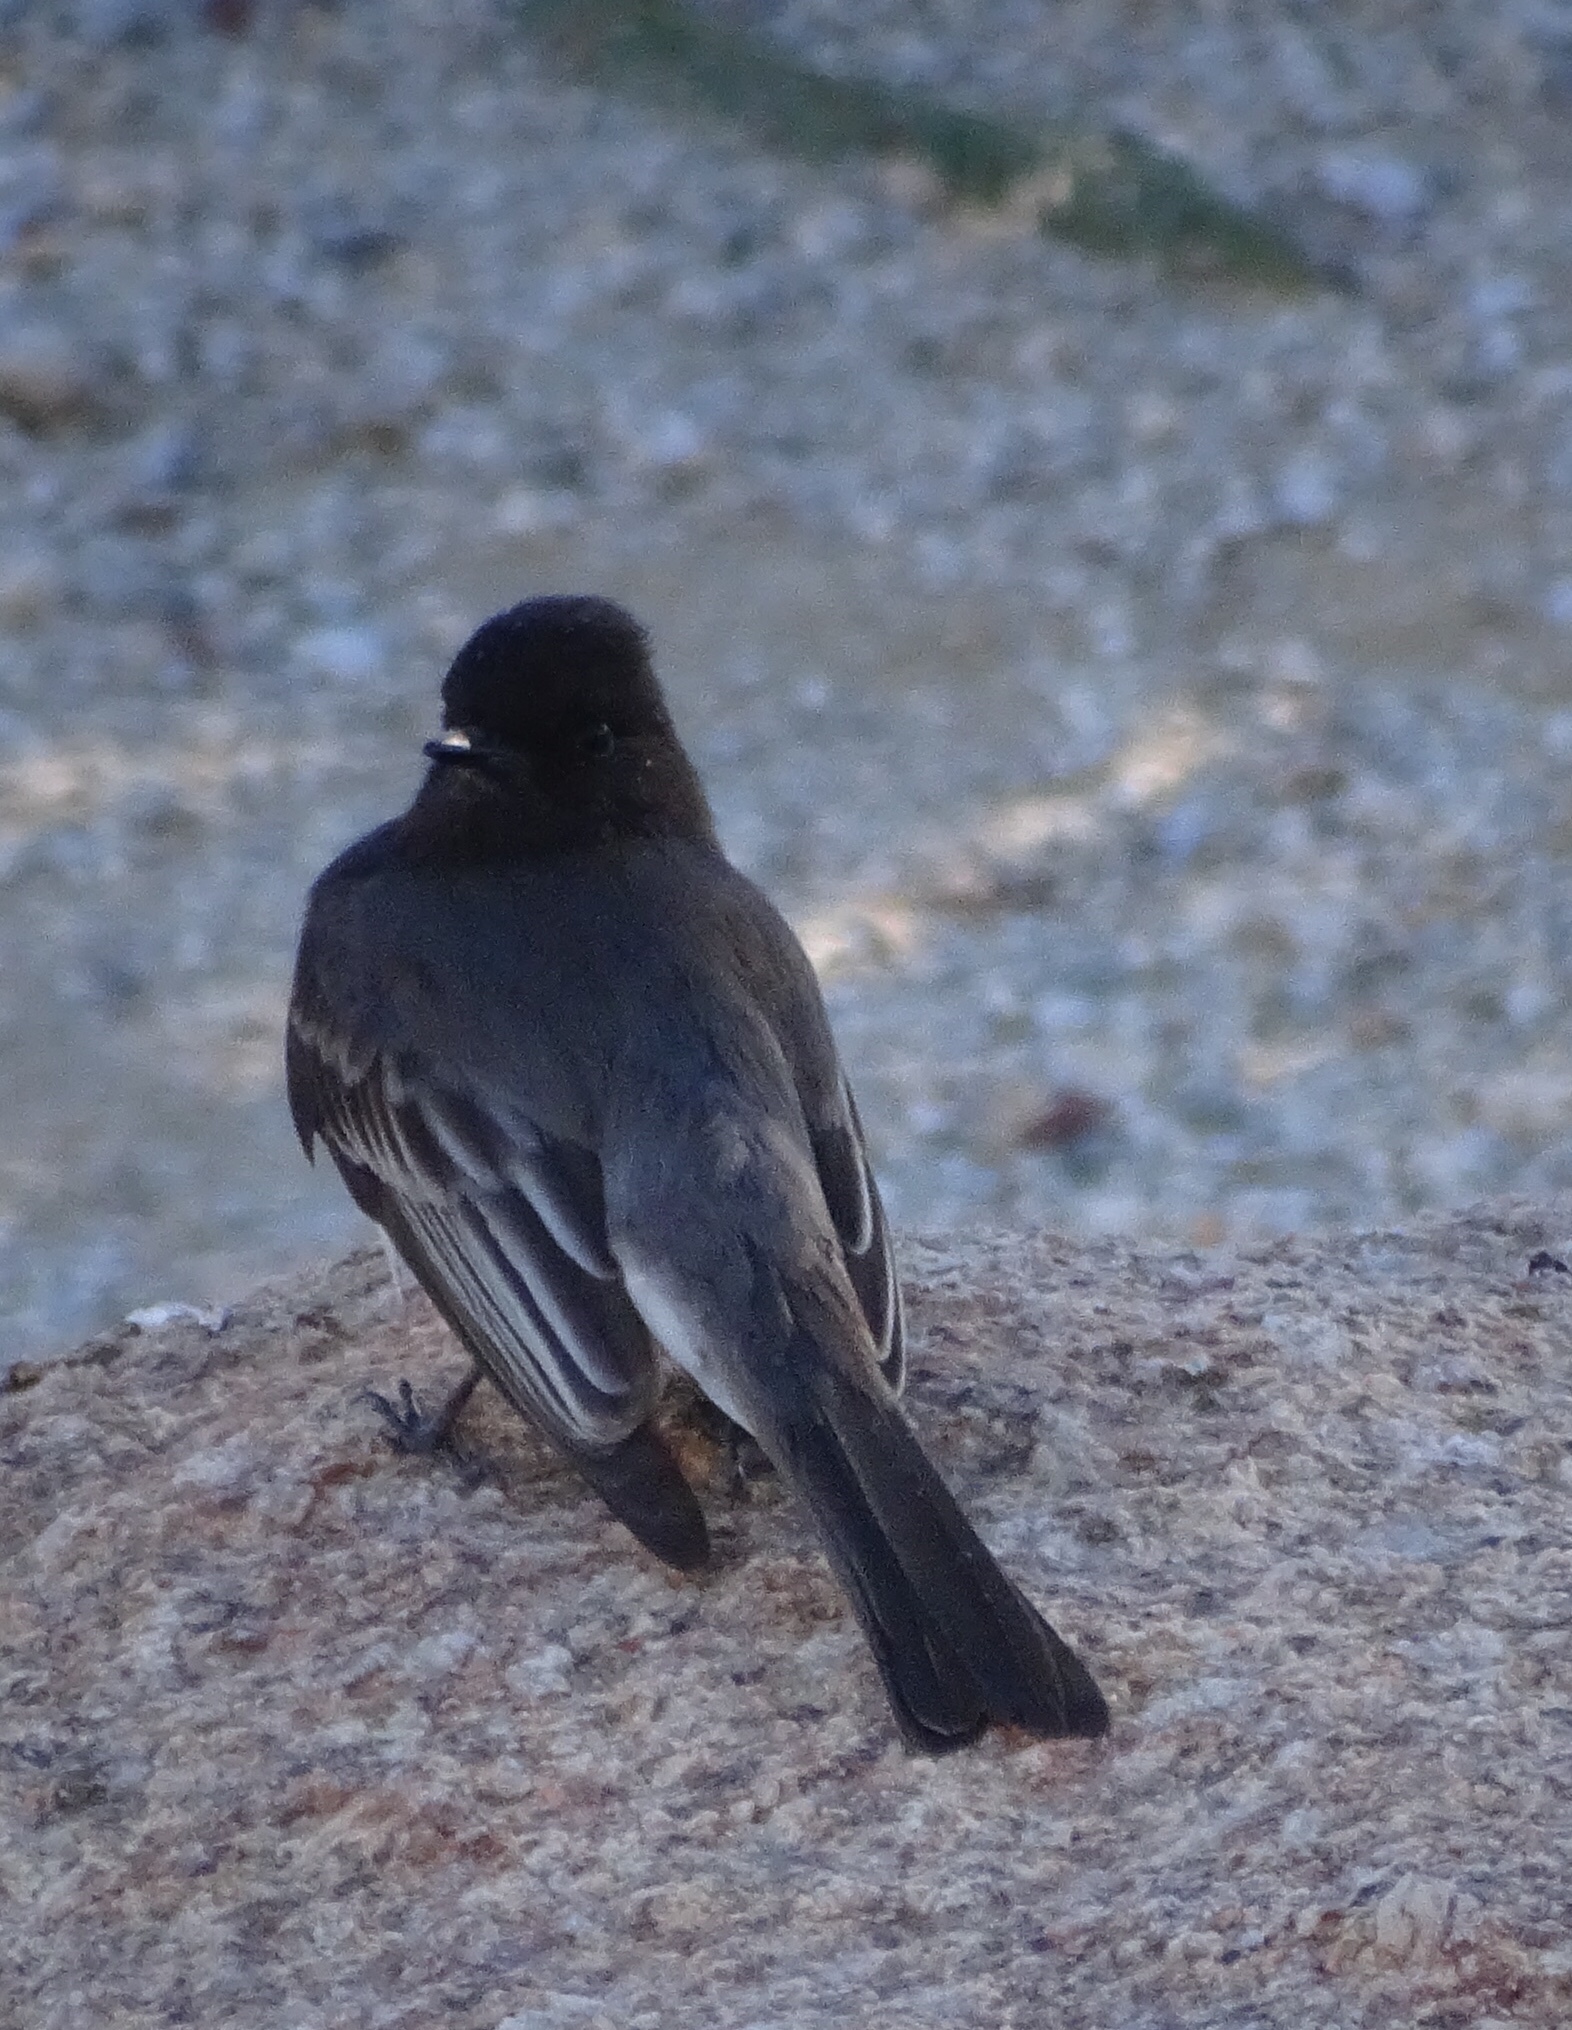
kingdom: Animalia
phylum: Chordata
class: Aves
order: Passeriformes
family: Tyrannidae
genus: Sayornis
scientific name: Sayornis nigricans
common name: Black phoebe
